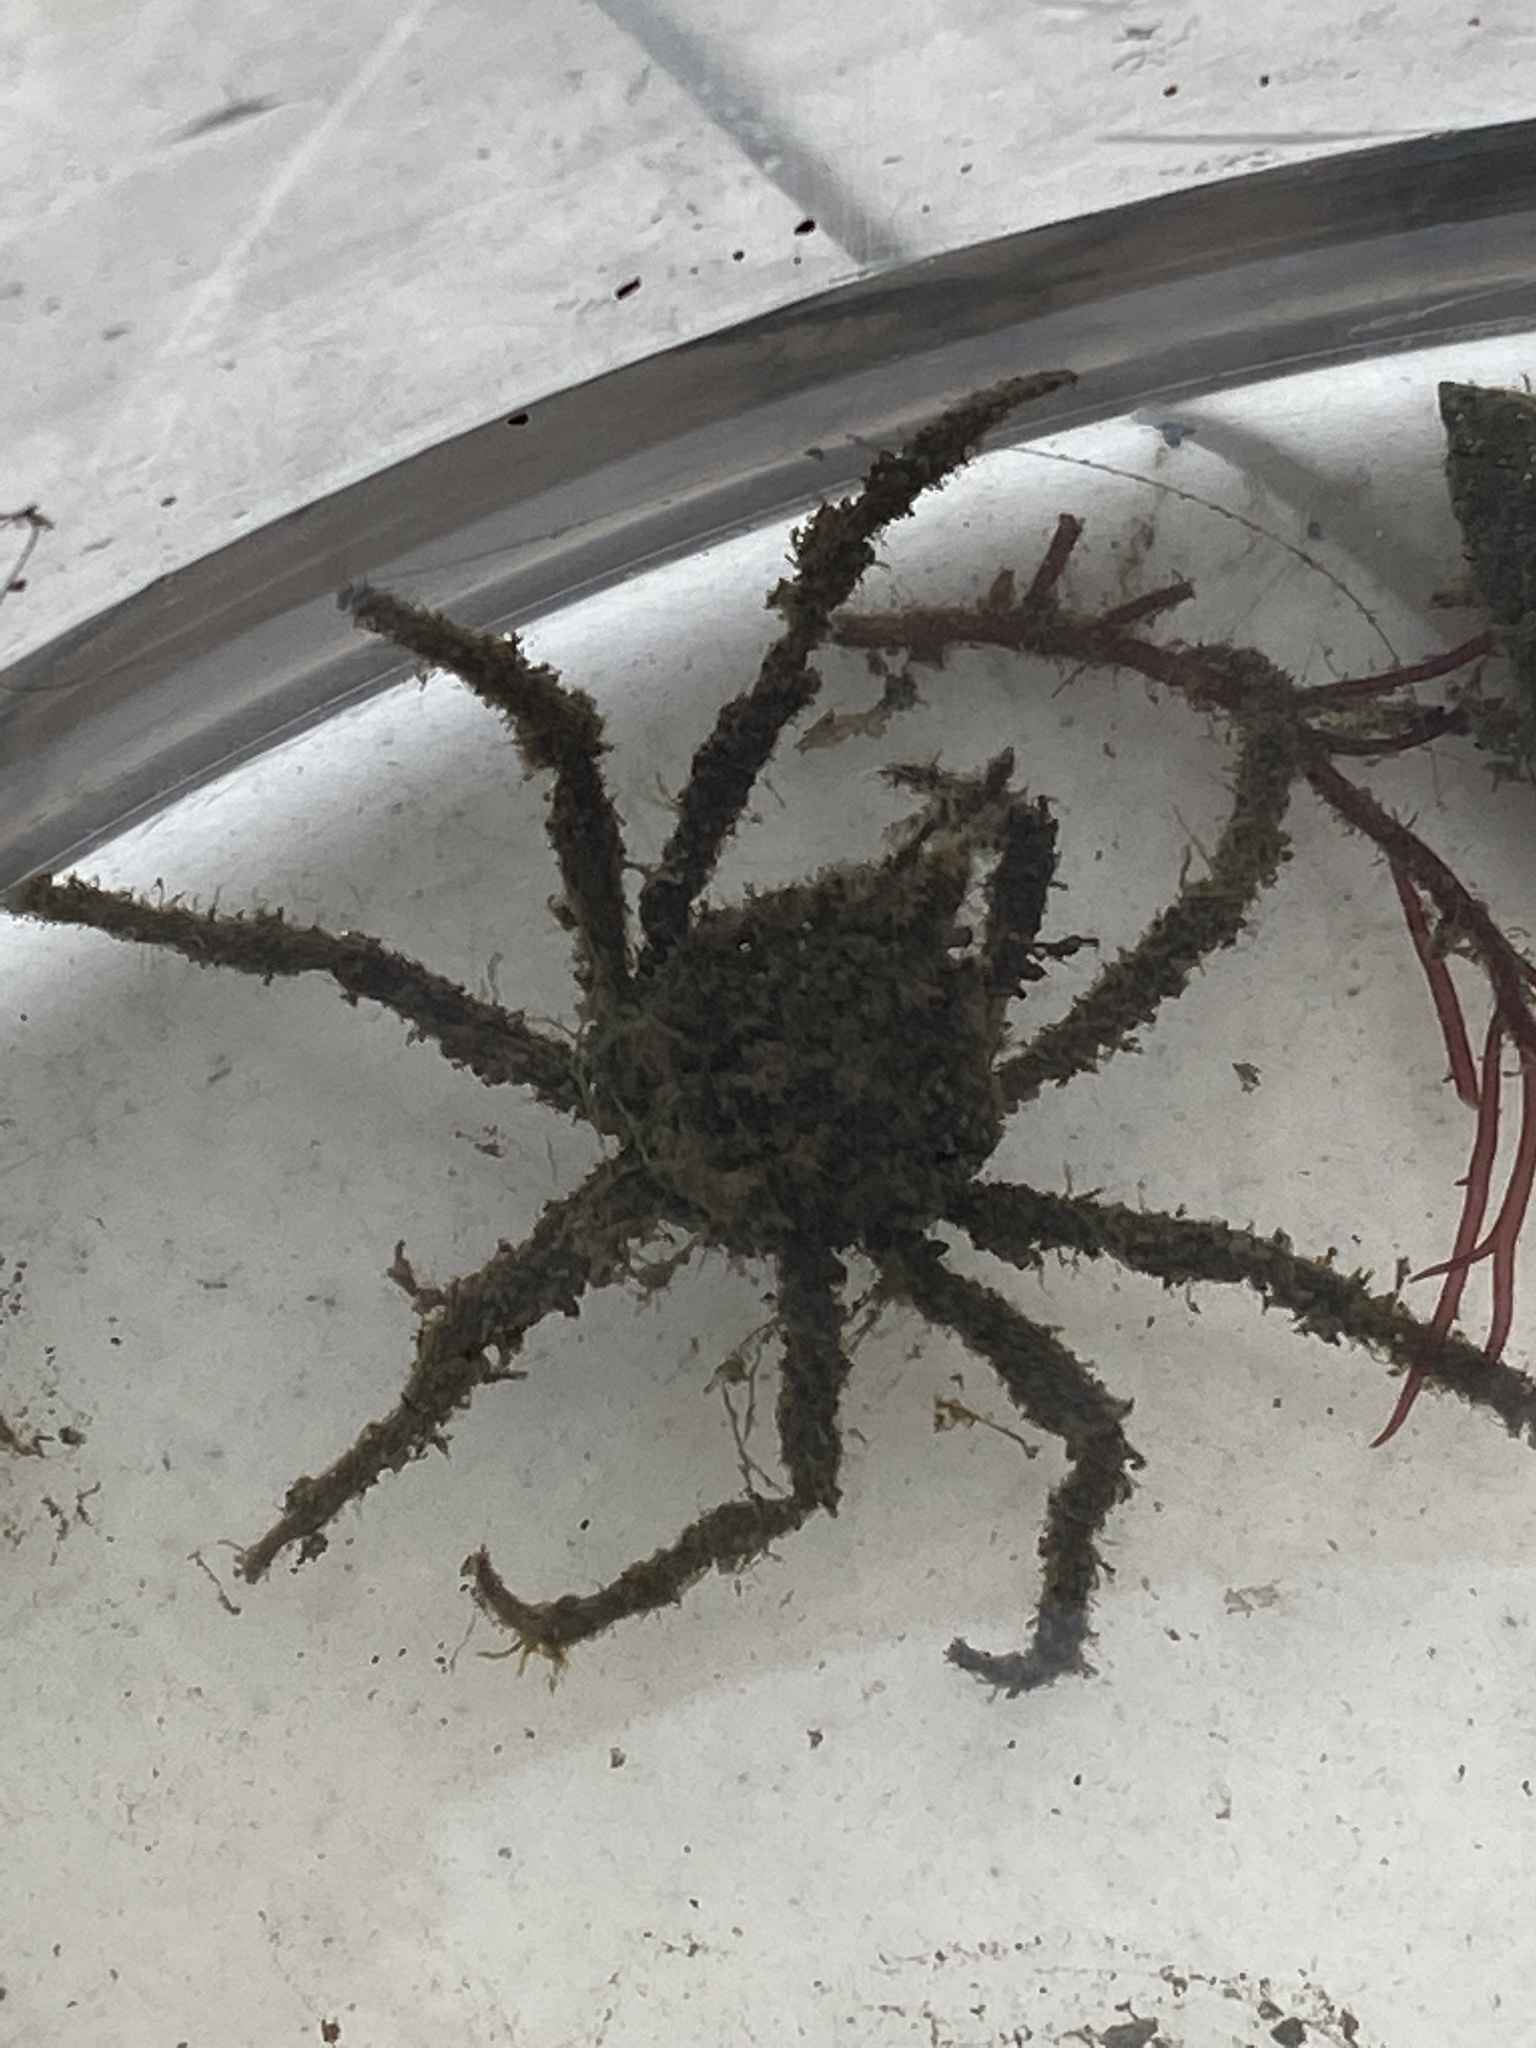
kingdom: Animalia
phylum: Arthropoda
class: Malacostraca
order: Decapoda
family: Inachoididae
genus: Pyromaia
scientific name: Pyromaia tuberculata
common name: Tuberculate pear crab
